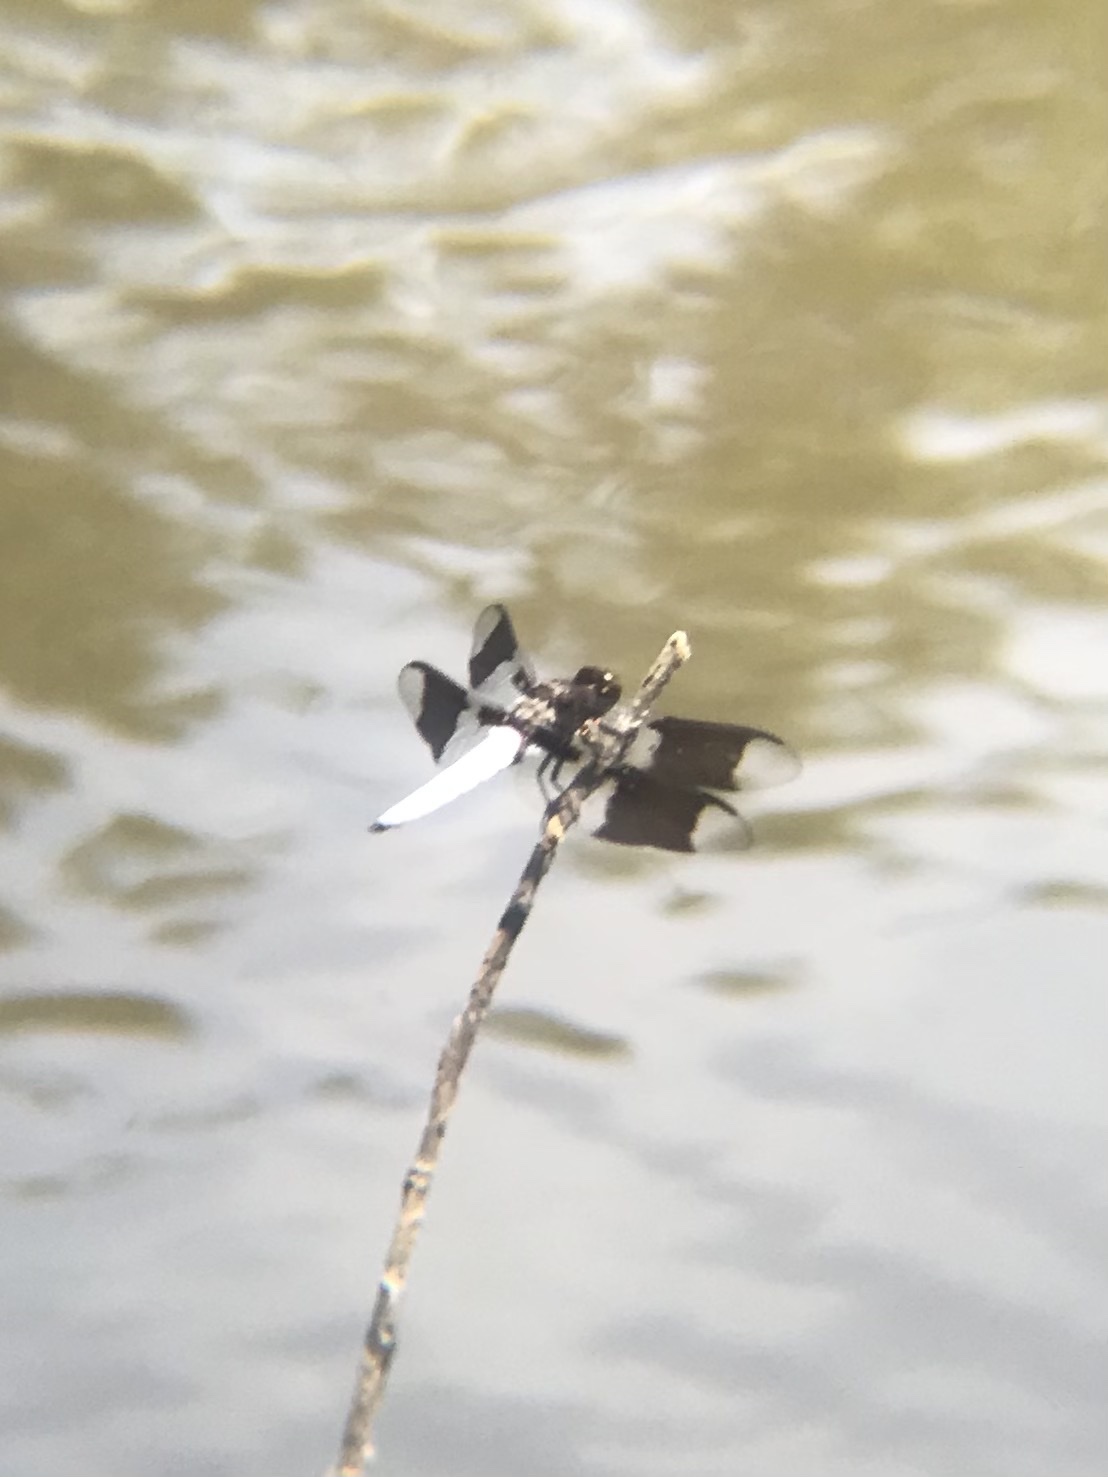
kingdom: Animalia
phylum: Arthropoda
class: Insecta
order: Odonata
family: Libellulidae
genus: Plathemis
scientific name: Plathemis lydia
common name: Common whitetail
